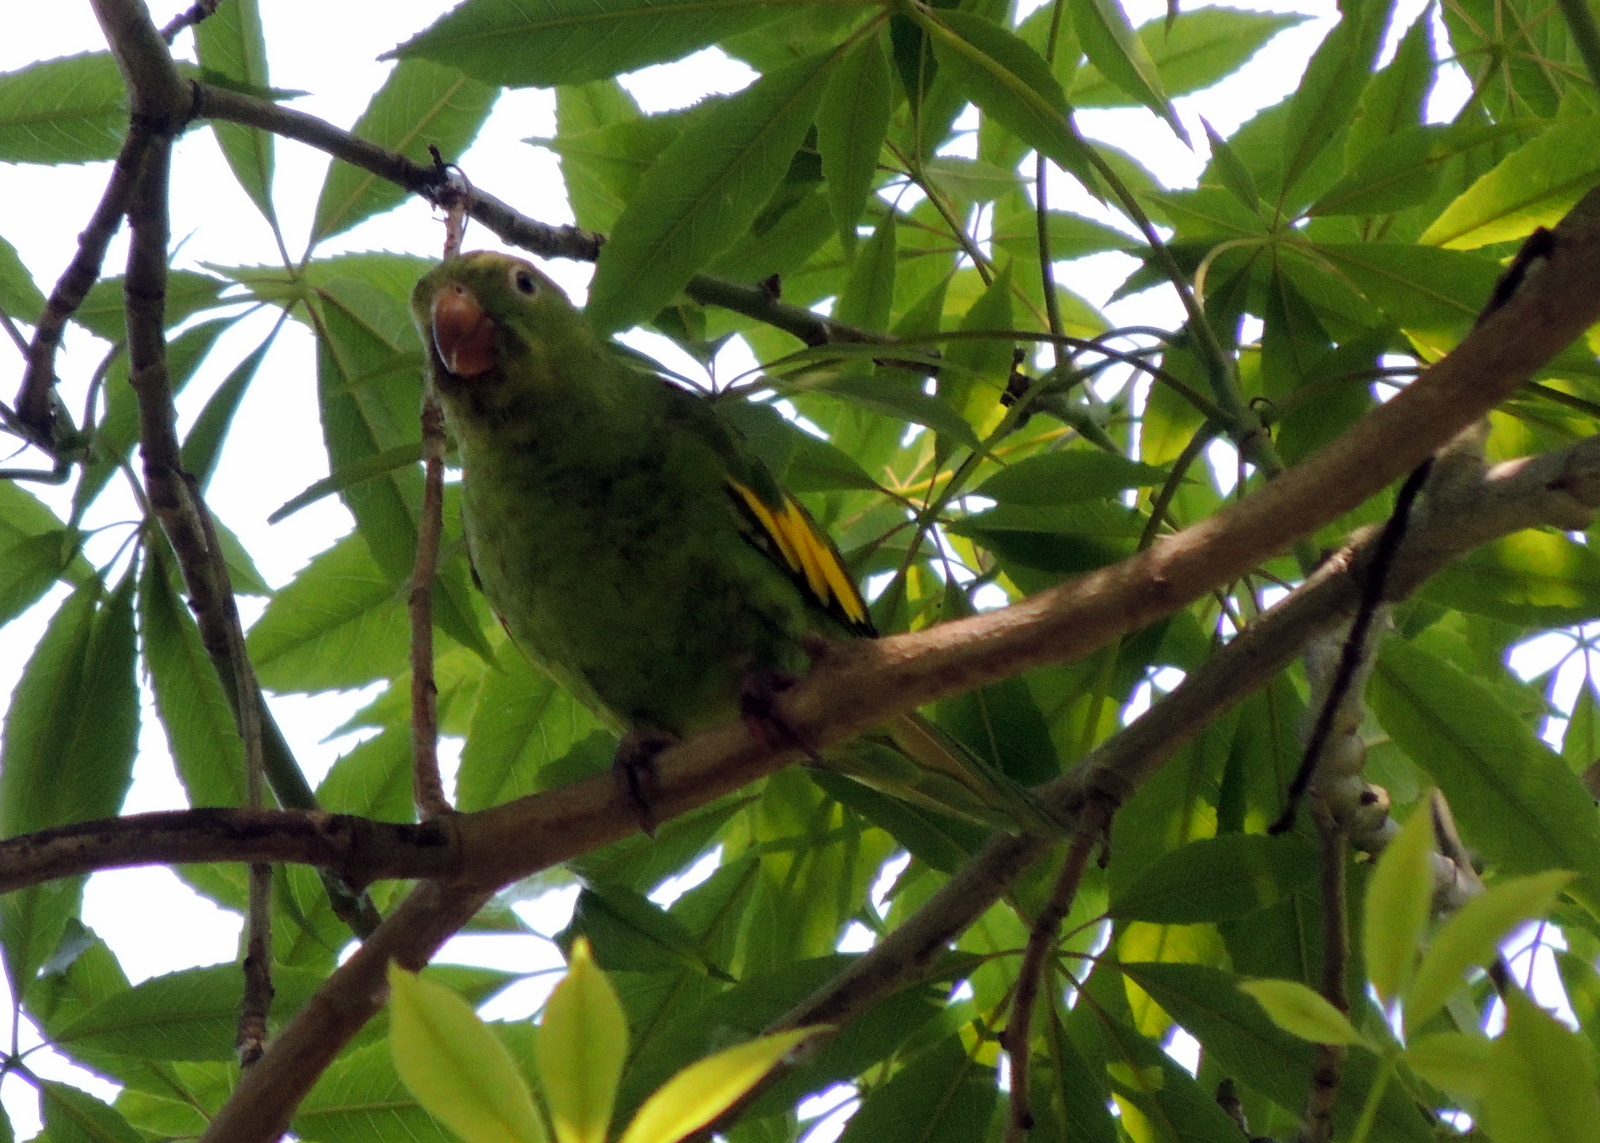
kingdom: Animalia
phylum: Chordata
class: Aves
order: Psittaciformes
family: Psittacidae
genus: Brotogeris
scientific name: Brotogeris chiriri
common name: Yellow-chevroned parakeet
